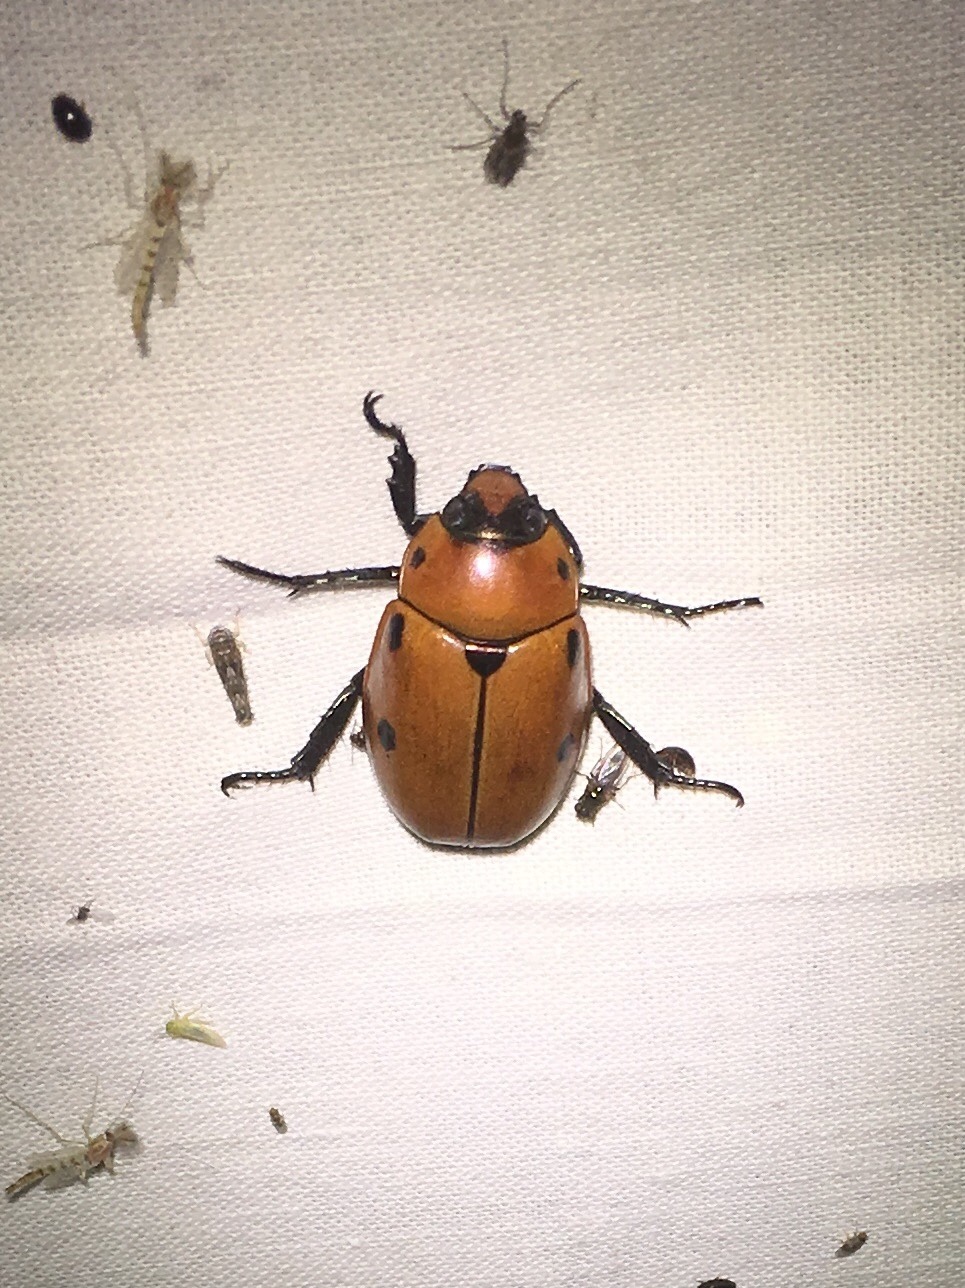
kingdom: Animalia
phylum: Arthropoda
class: Insecta
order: Coleoptera
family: Scarabaeidae
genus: Pelidnota
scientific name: Pelidnota punctata
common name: Grapevine beetle
